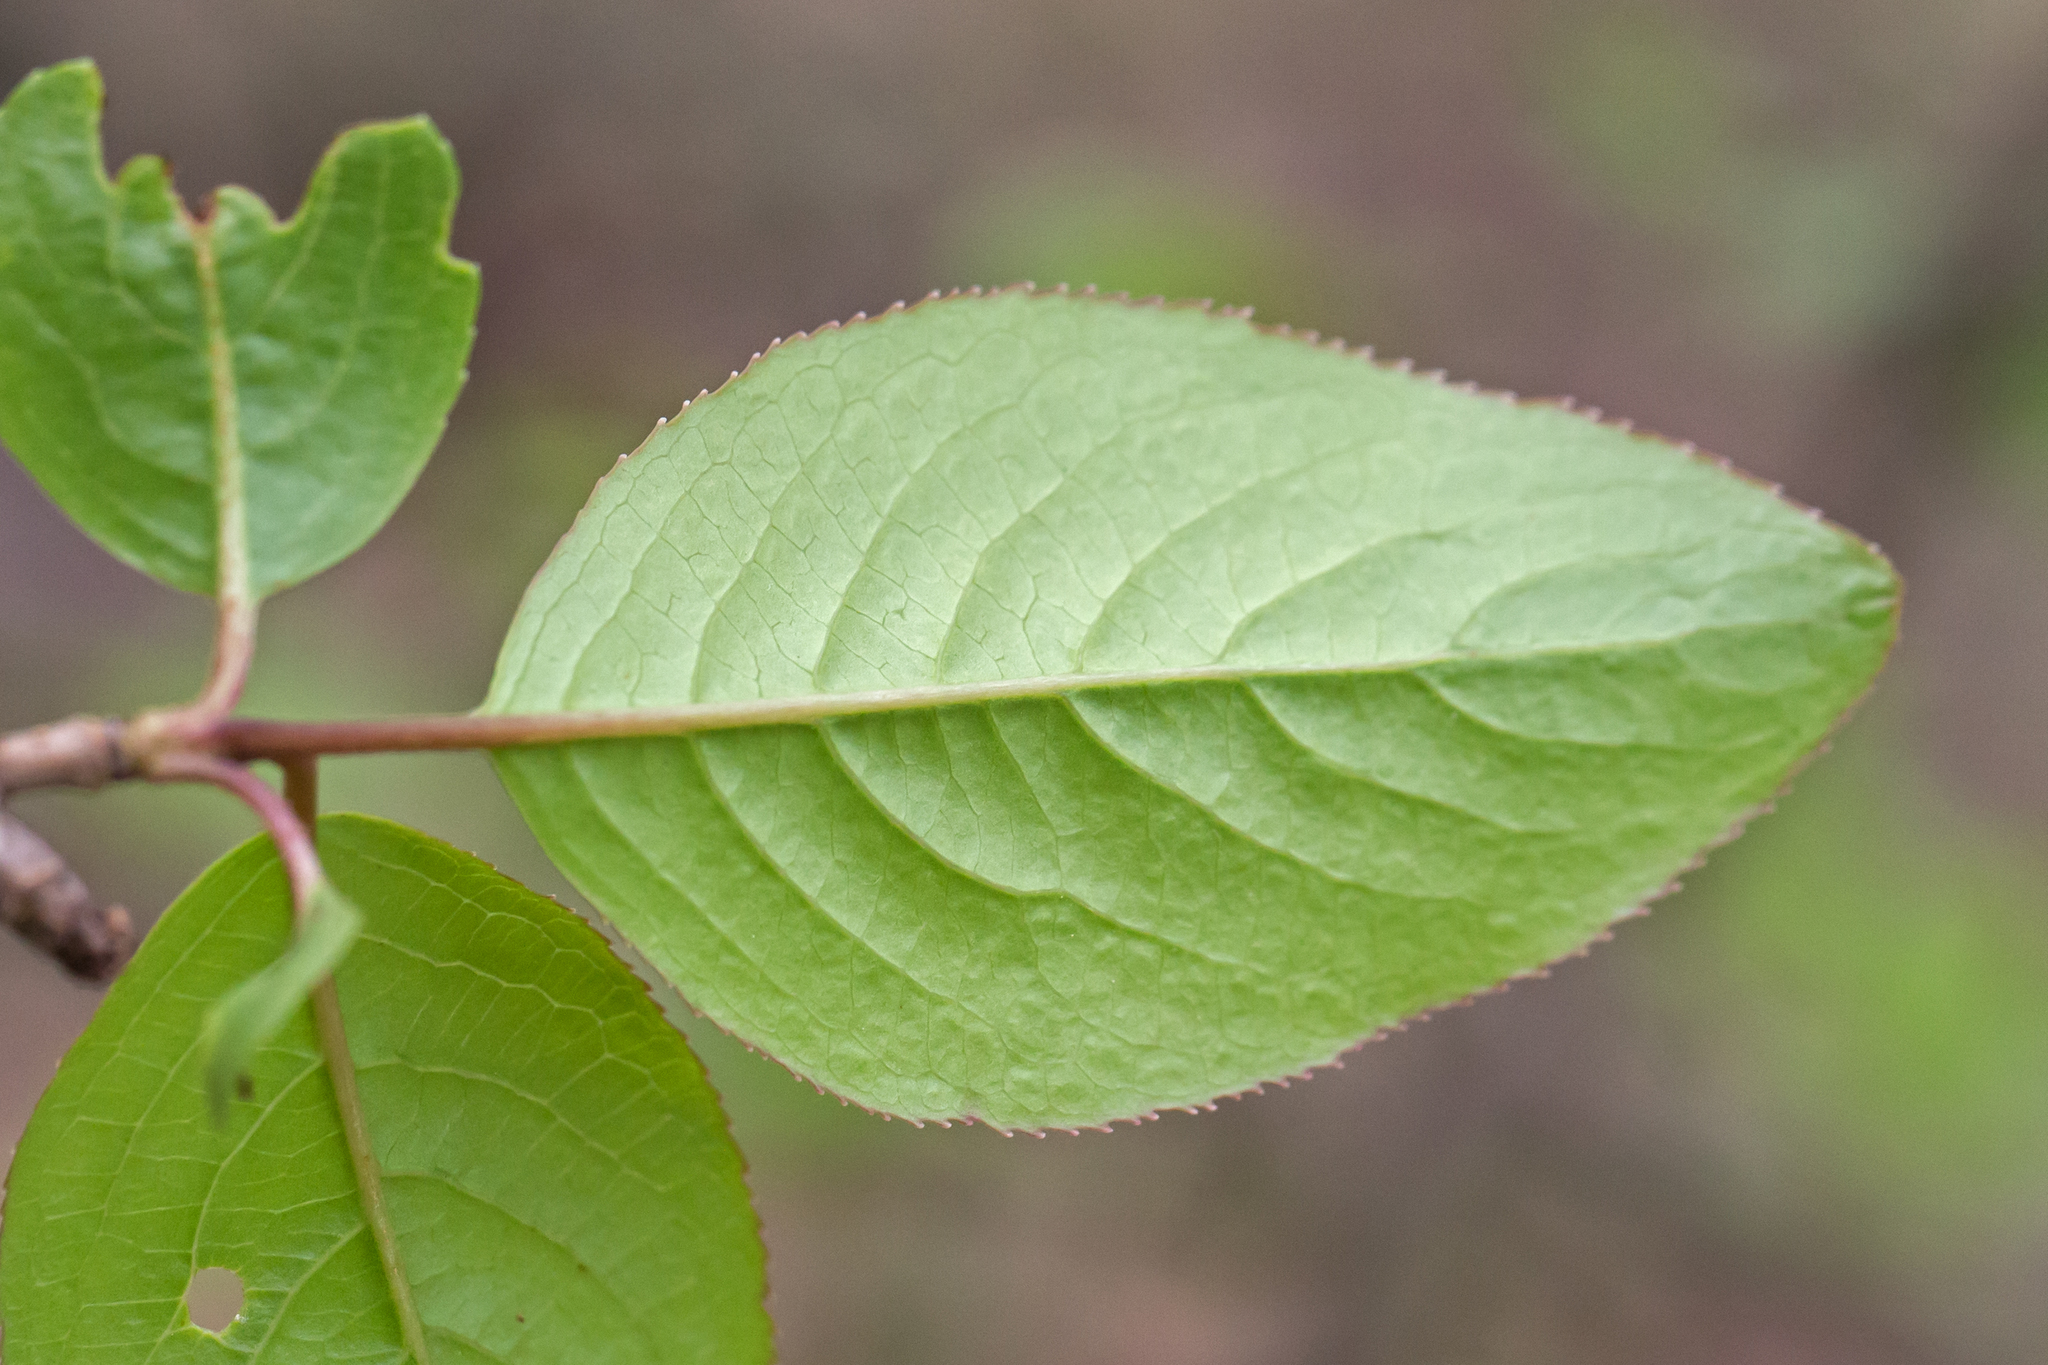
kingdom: Plantae
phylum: Tracheophyta
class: Magnoliopsida
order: Dipsacales
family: Viburnaceae
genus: Viburnum
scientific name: Viburnum prunifolium
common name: Black haw
